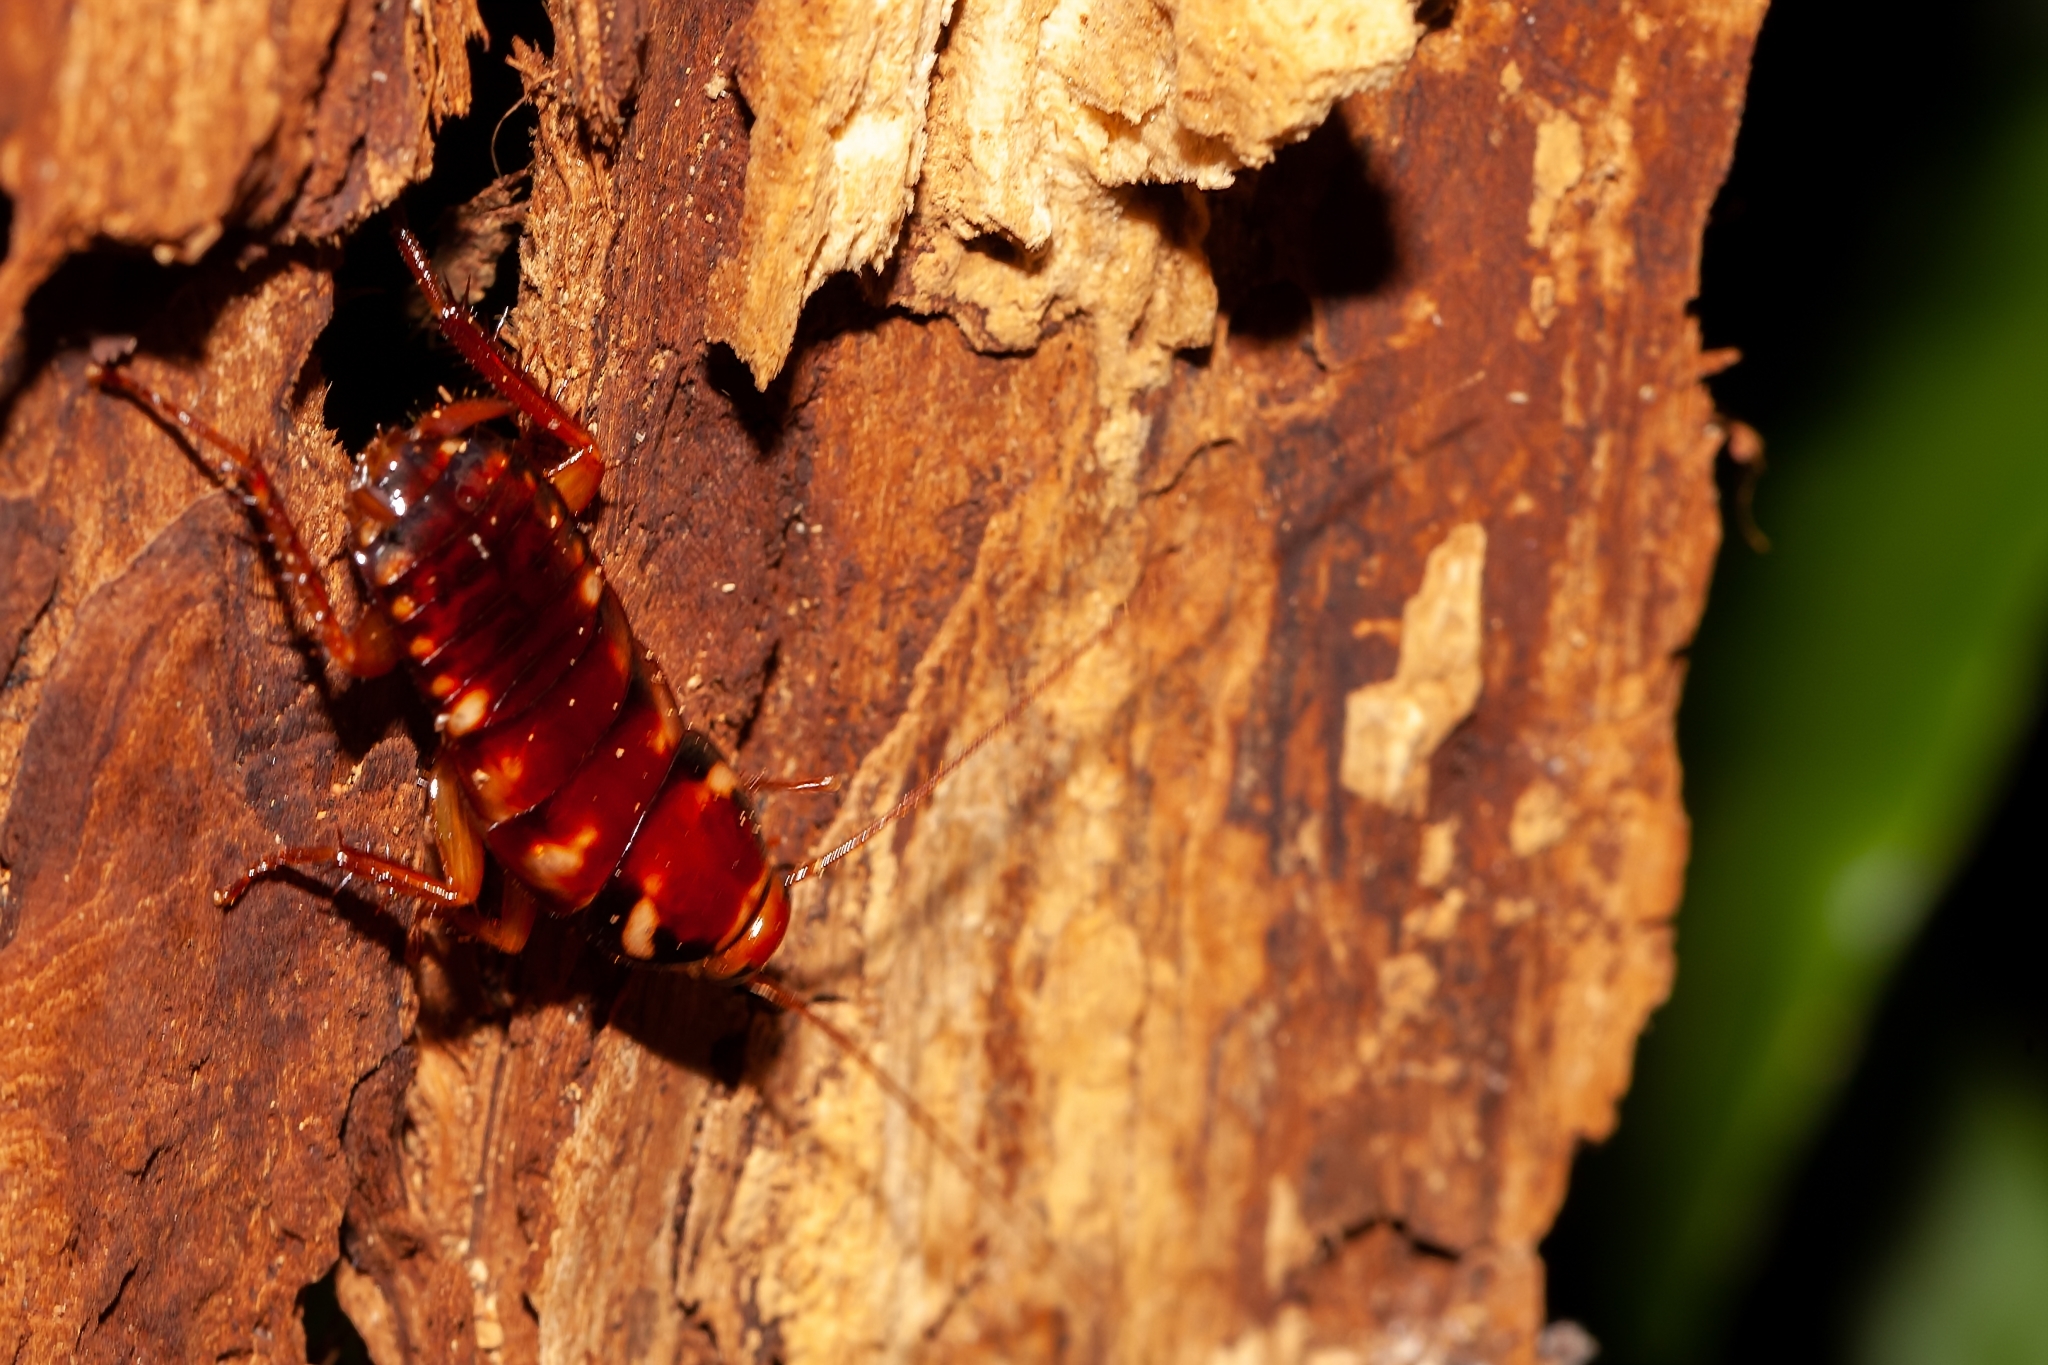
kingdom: Animalia
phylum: Arthropoda
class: Insecta
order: Blattodea
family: Blattidae
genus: Periplaneta
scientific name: Periplaneta australasiae
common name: Australian cockroach
